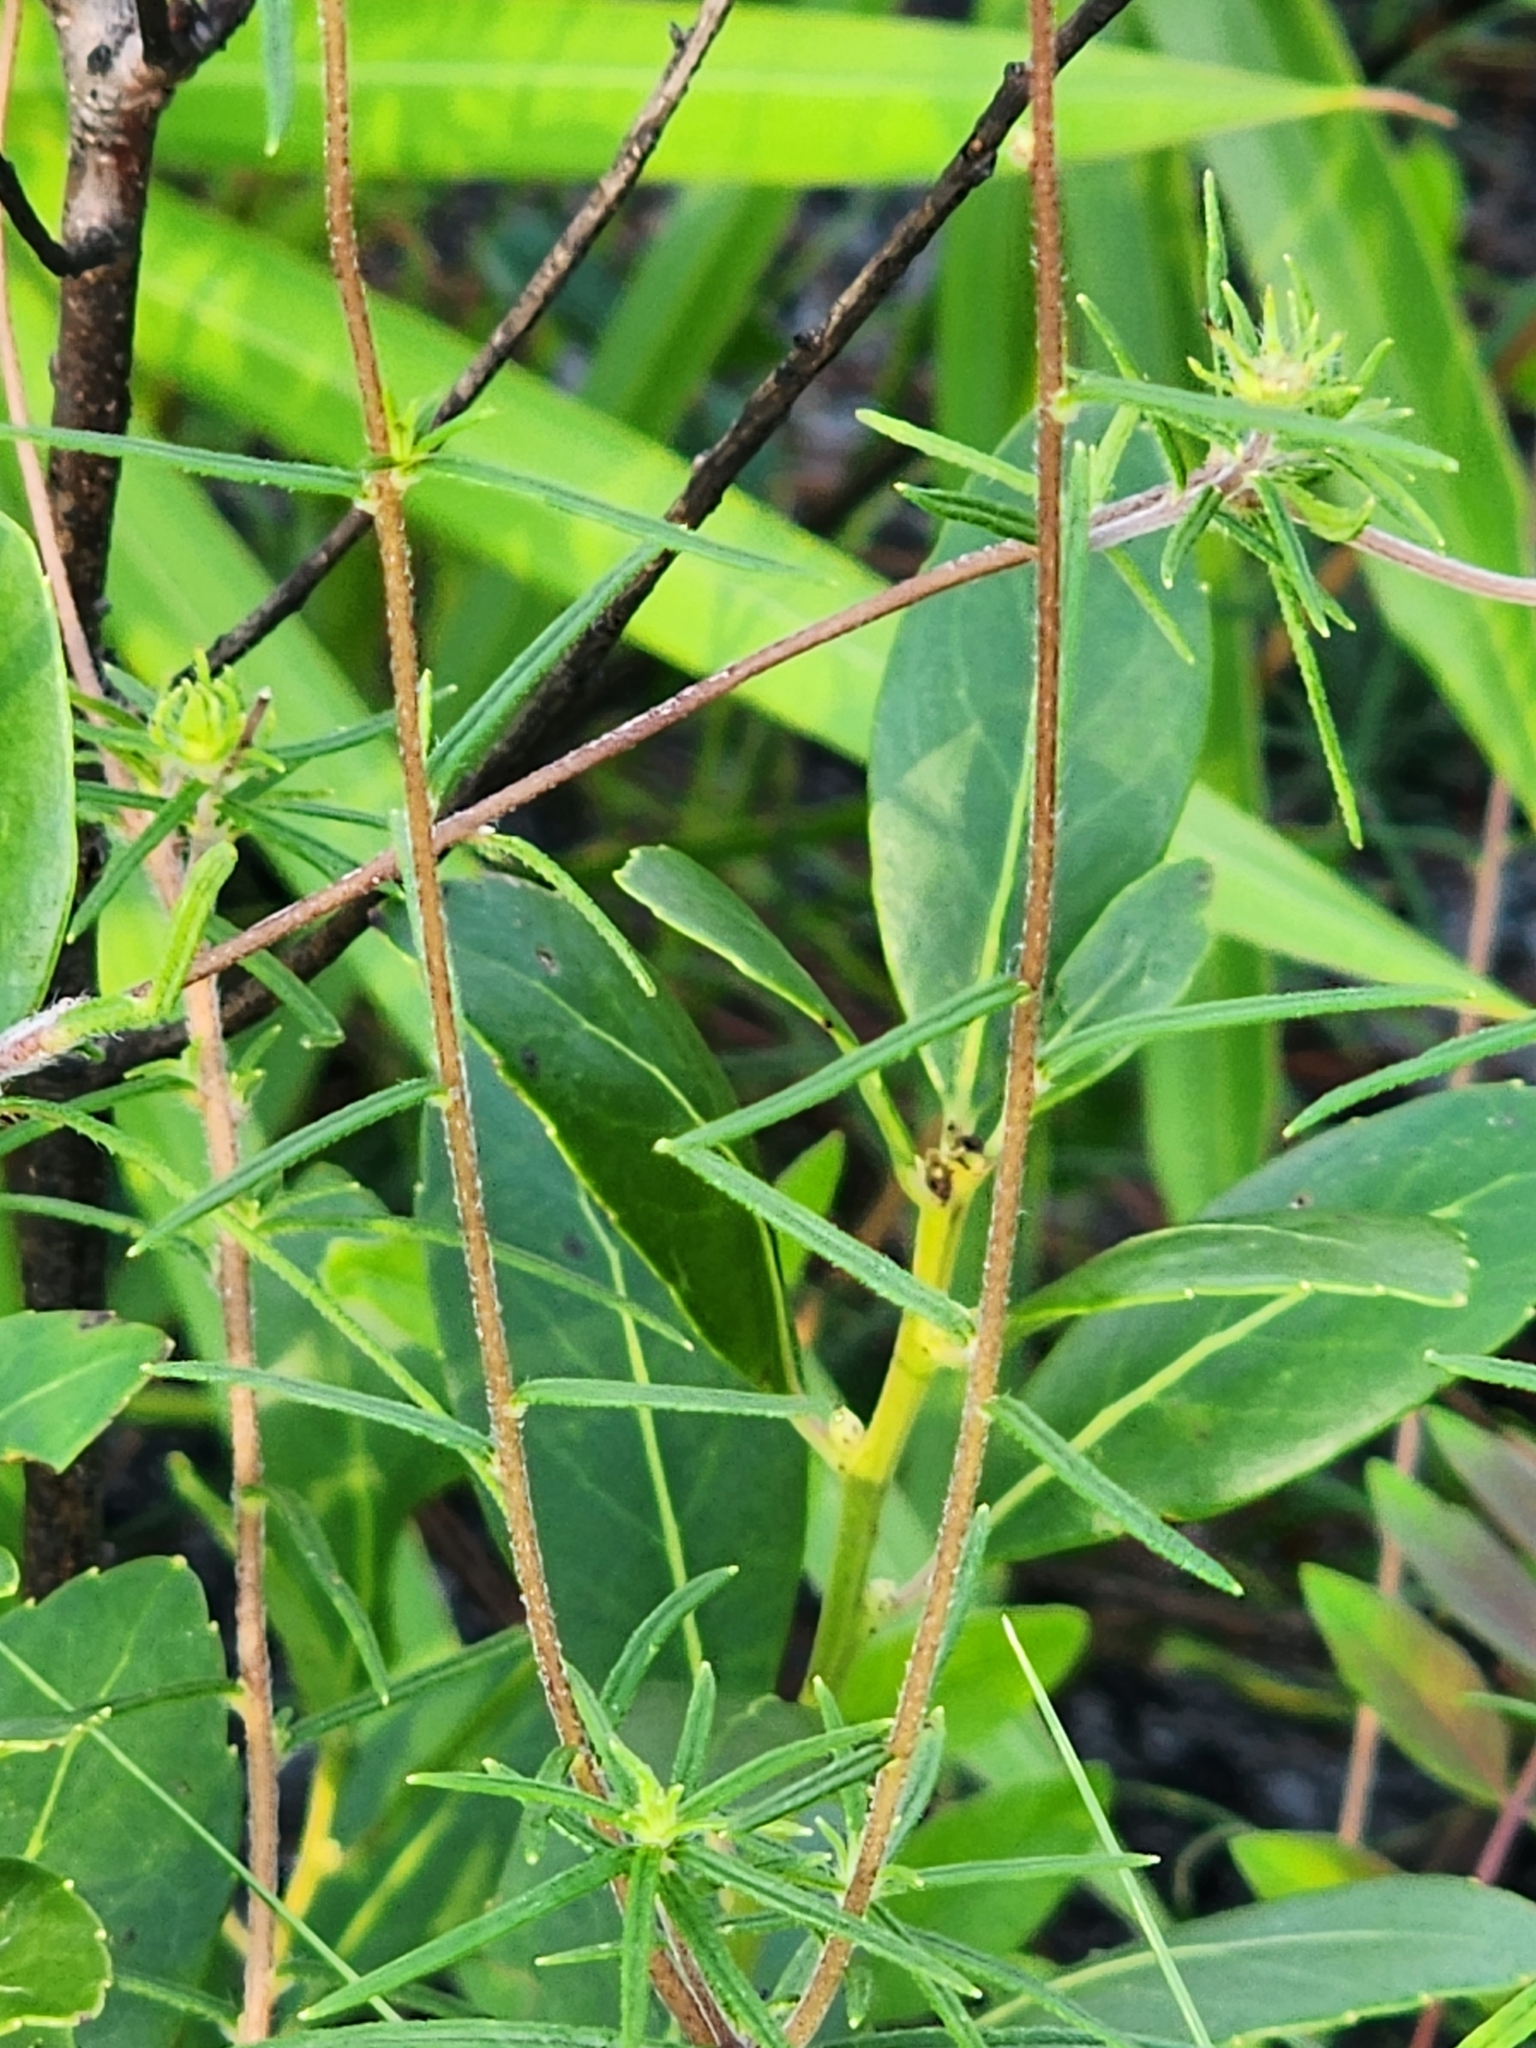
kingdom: Plantae
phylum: Tracheophyta
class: Magnoliopsida
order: Asterales
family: Asteraceae
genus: Phoebanthus
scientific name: Phoebanthus tenuifolia
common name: Pineland false sunflower
